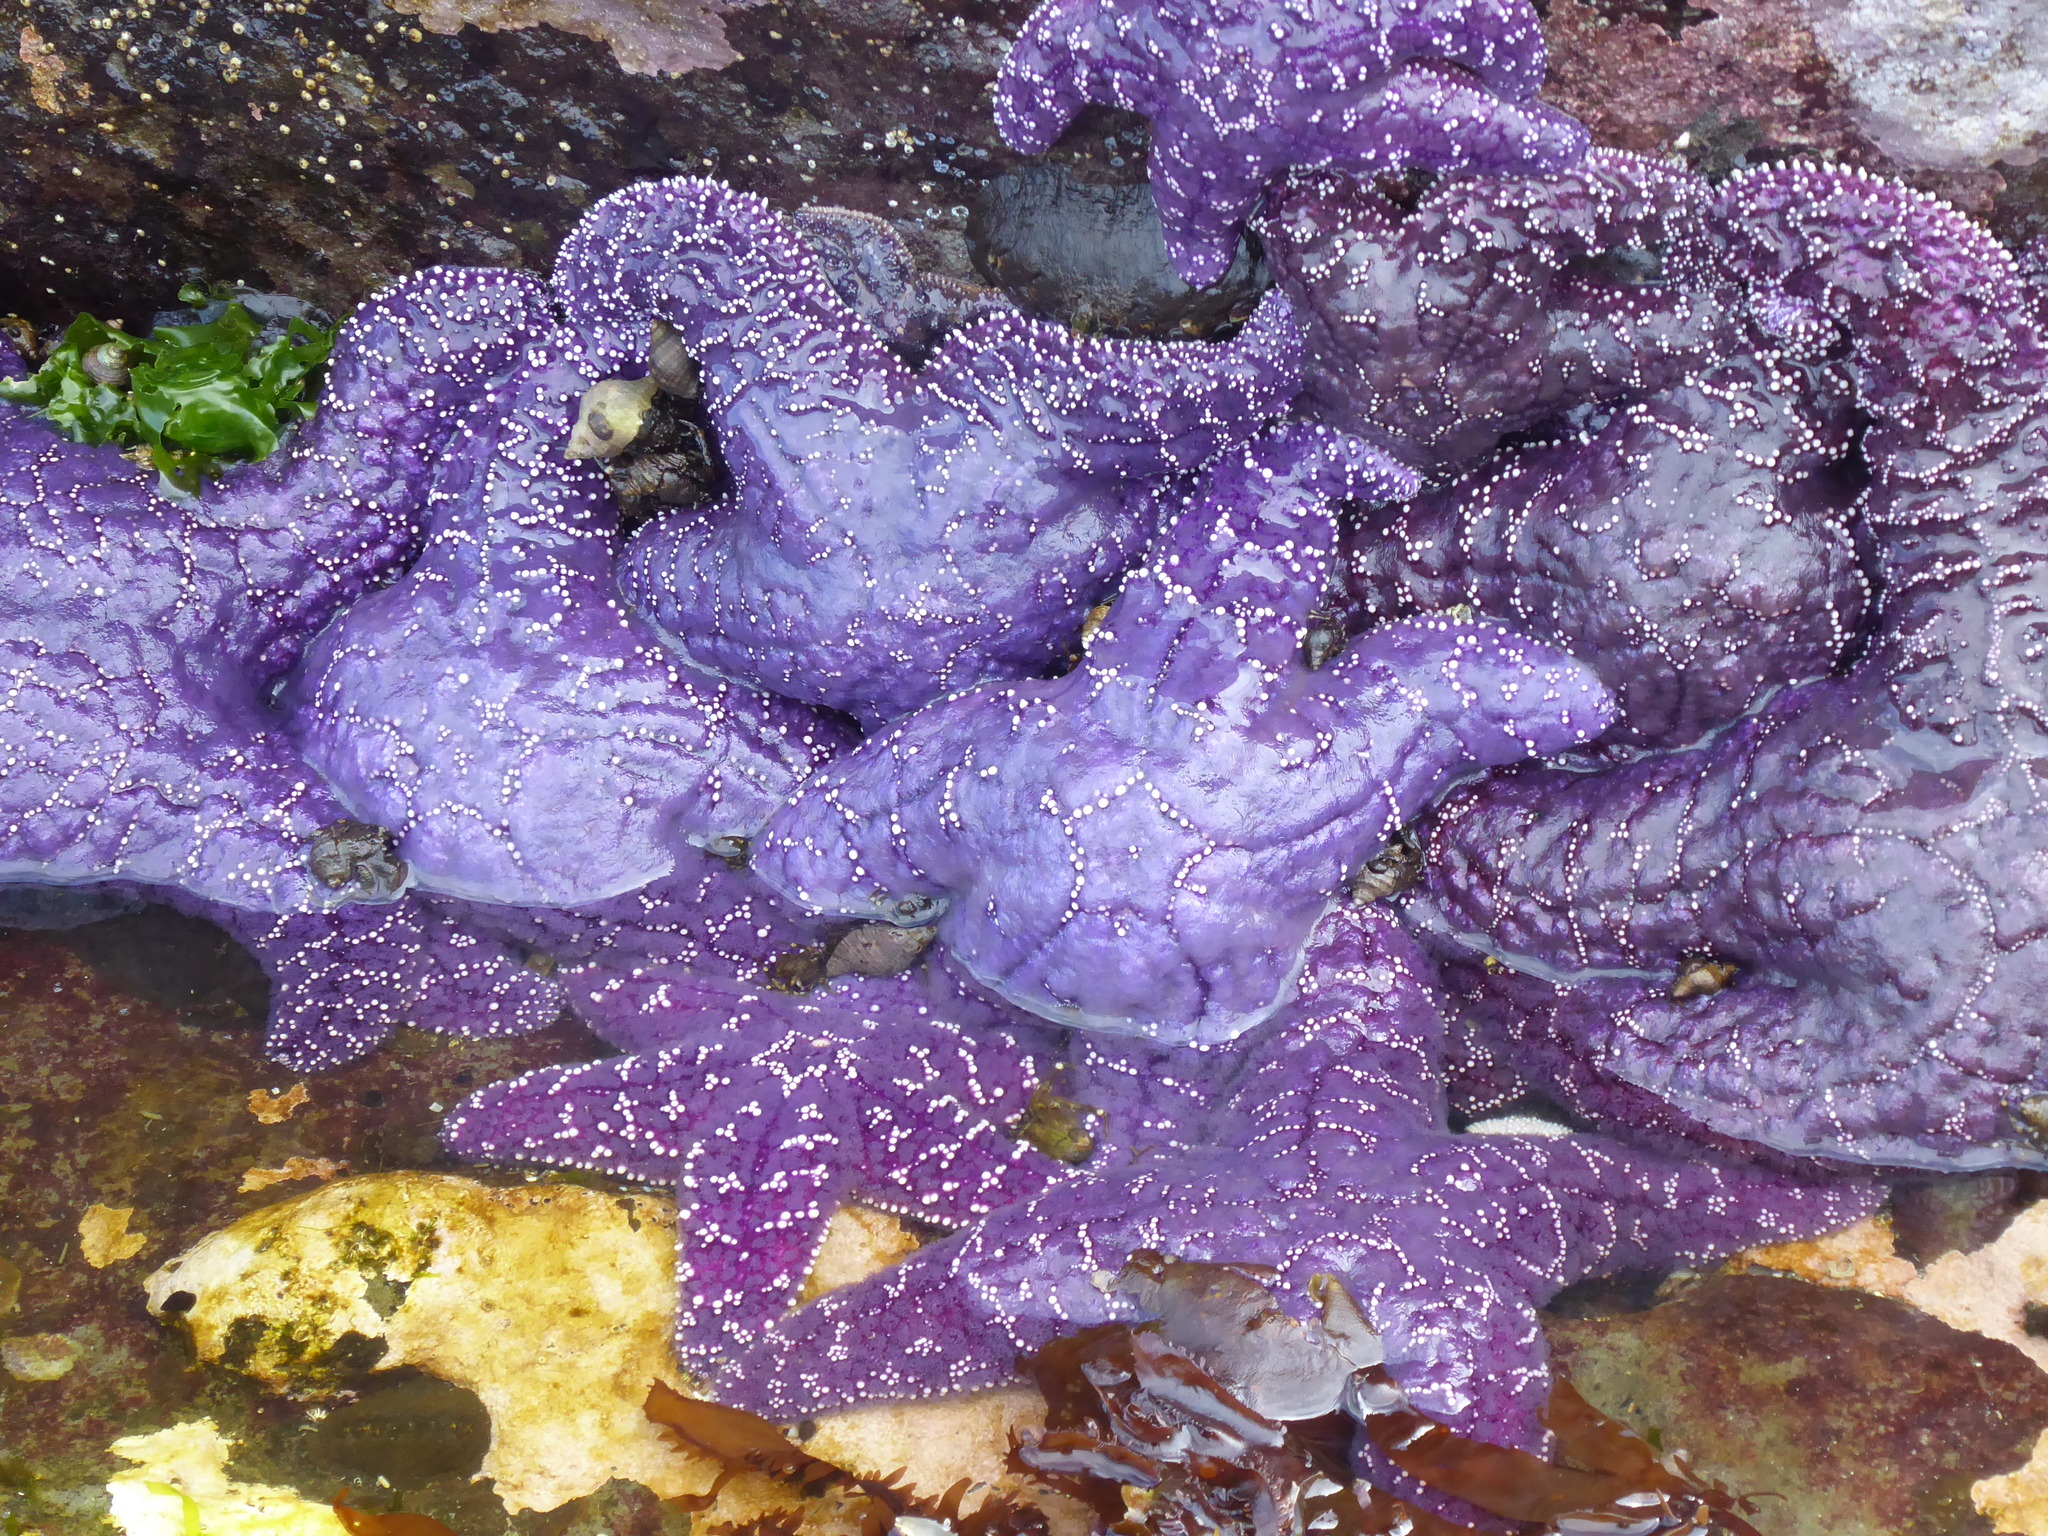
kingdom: Animalia
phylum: Echinodermata
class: Asteroidea
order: Forcipulatida
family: Asteriidae
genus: Pisaster
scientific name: Pisaster ochraceus
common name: Ochre stars
